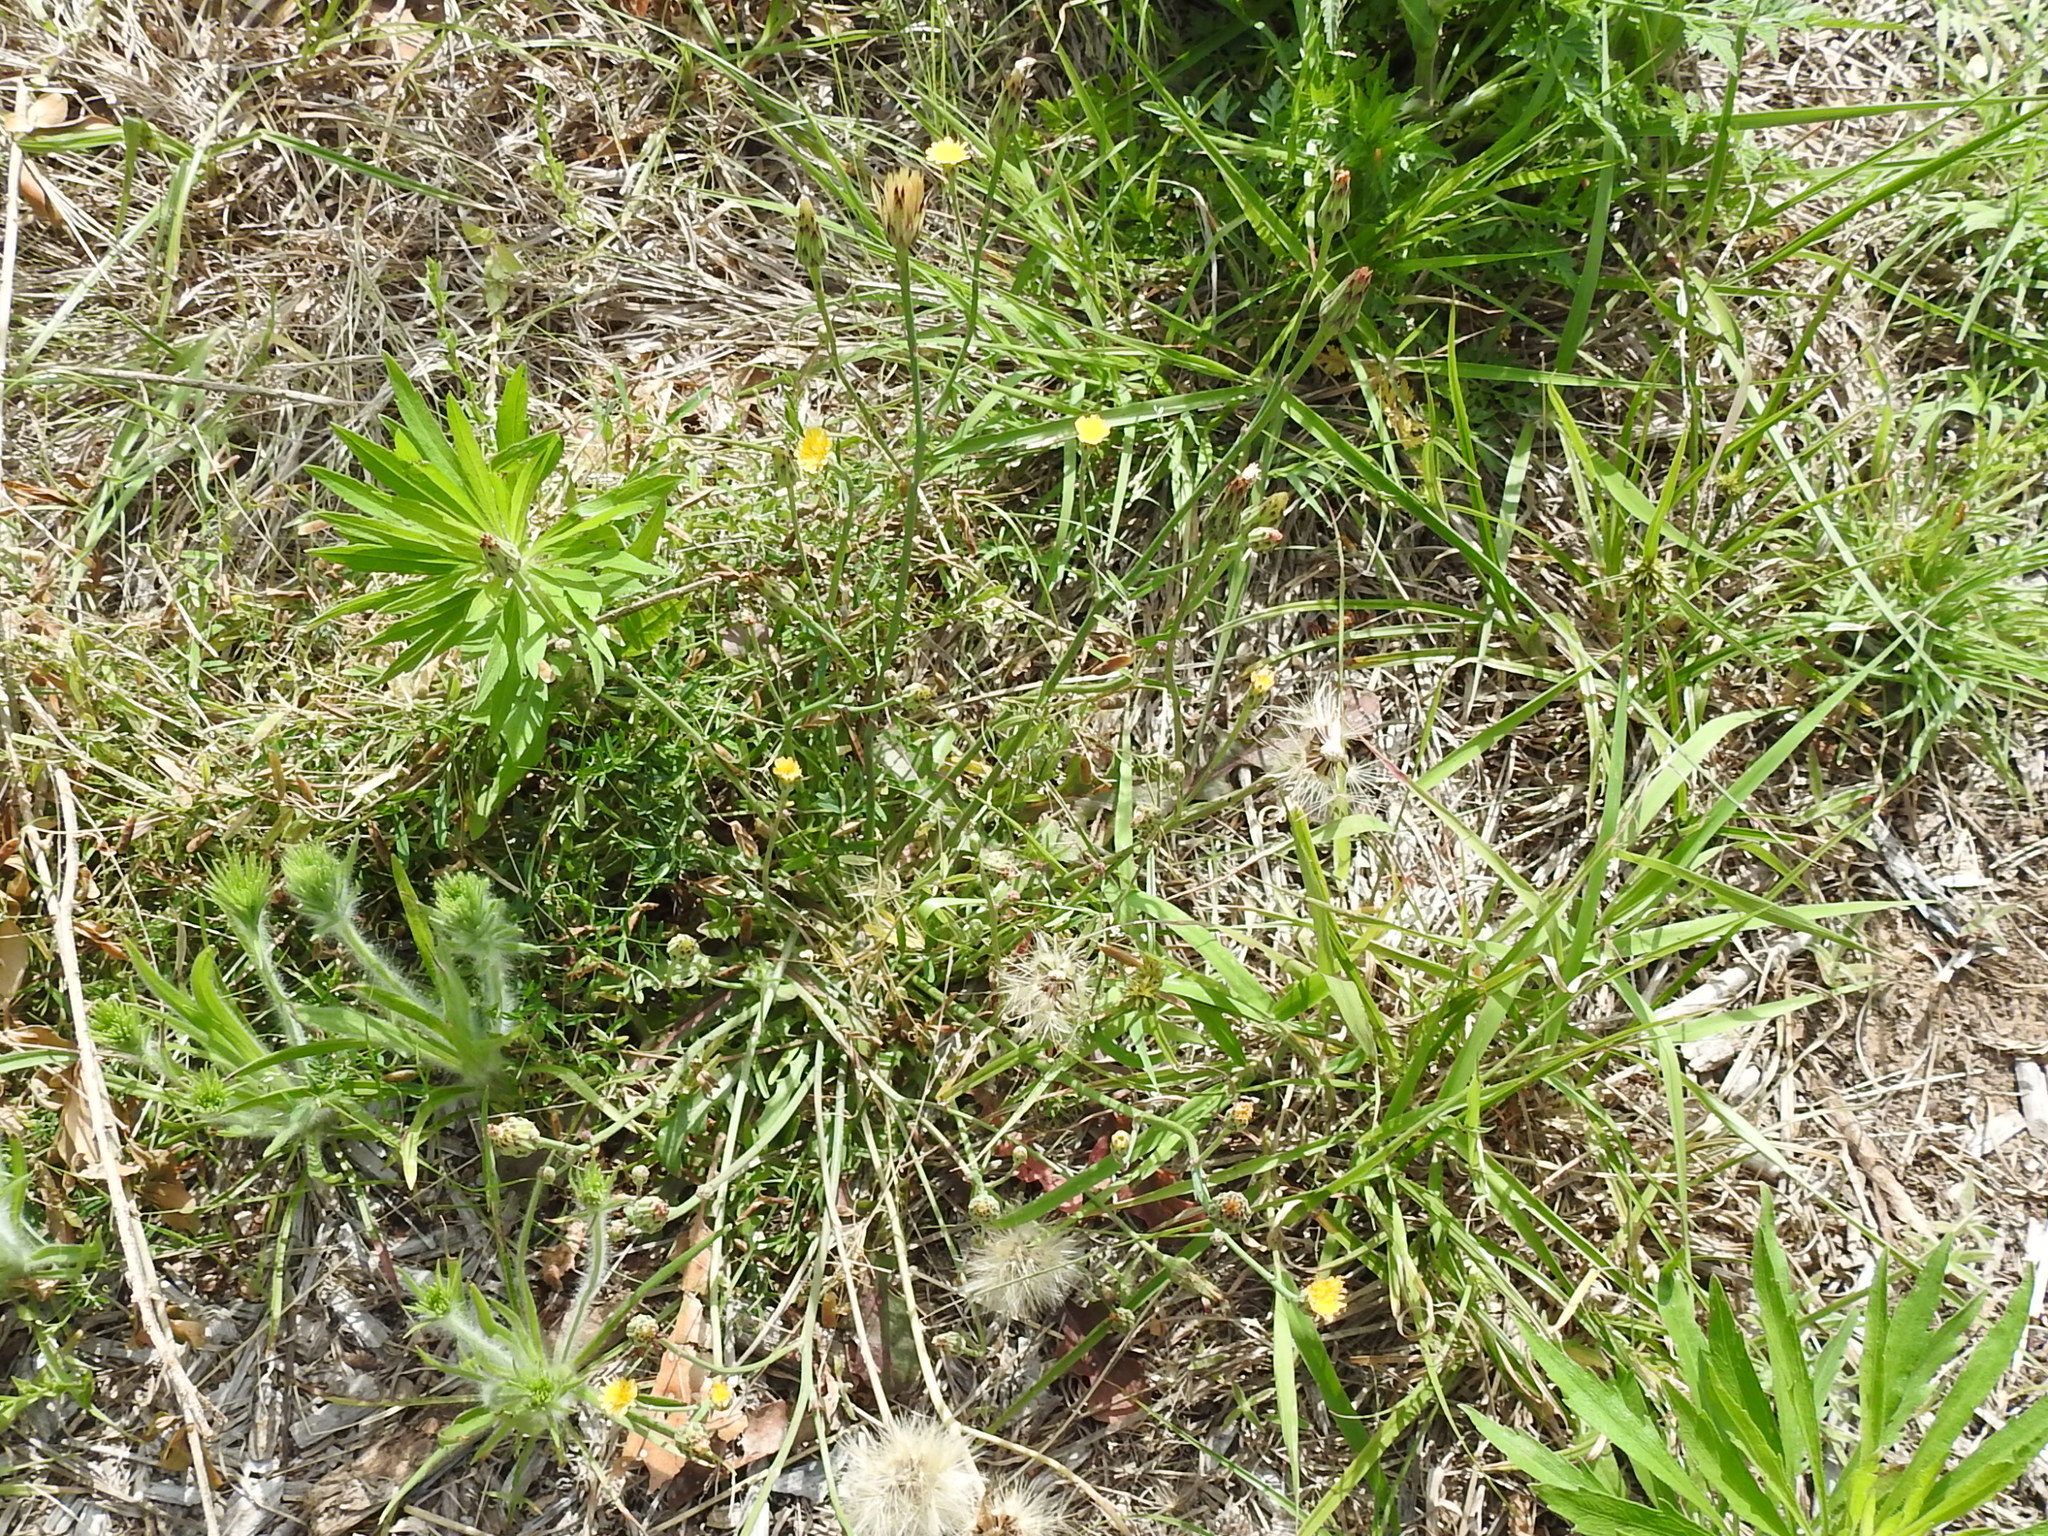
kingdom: Plantae
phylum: Tracheophyta
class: Magnoliopsida
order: Asterales
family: Asteraceae
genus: Hypochaeris
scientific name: Hypochaeris glabra
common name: Smooth catsear
